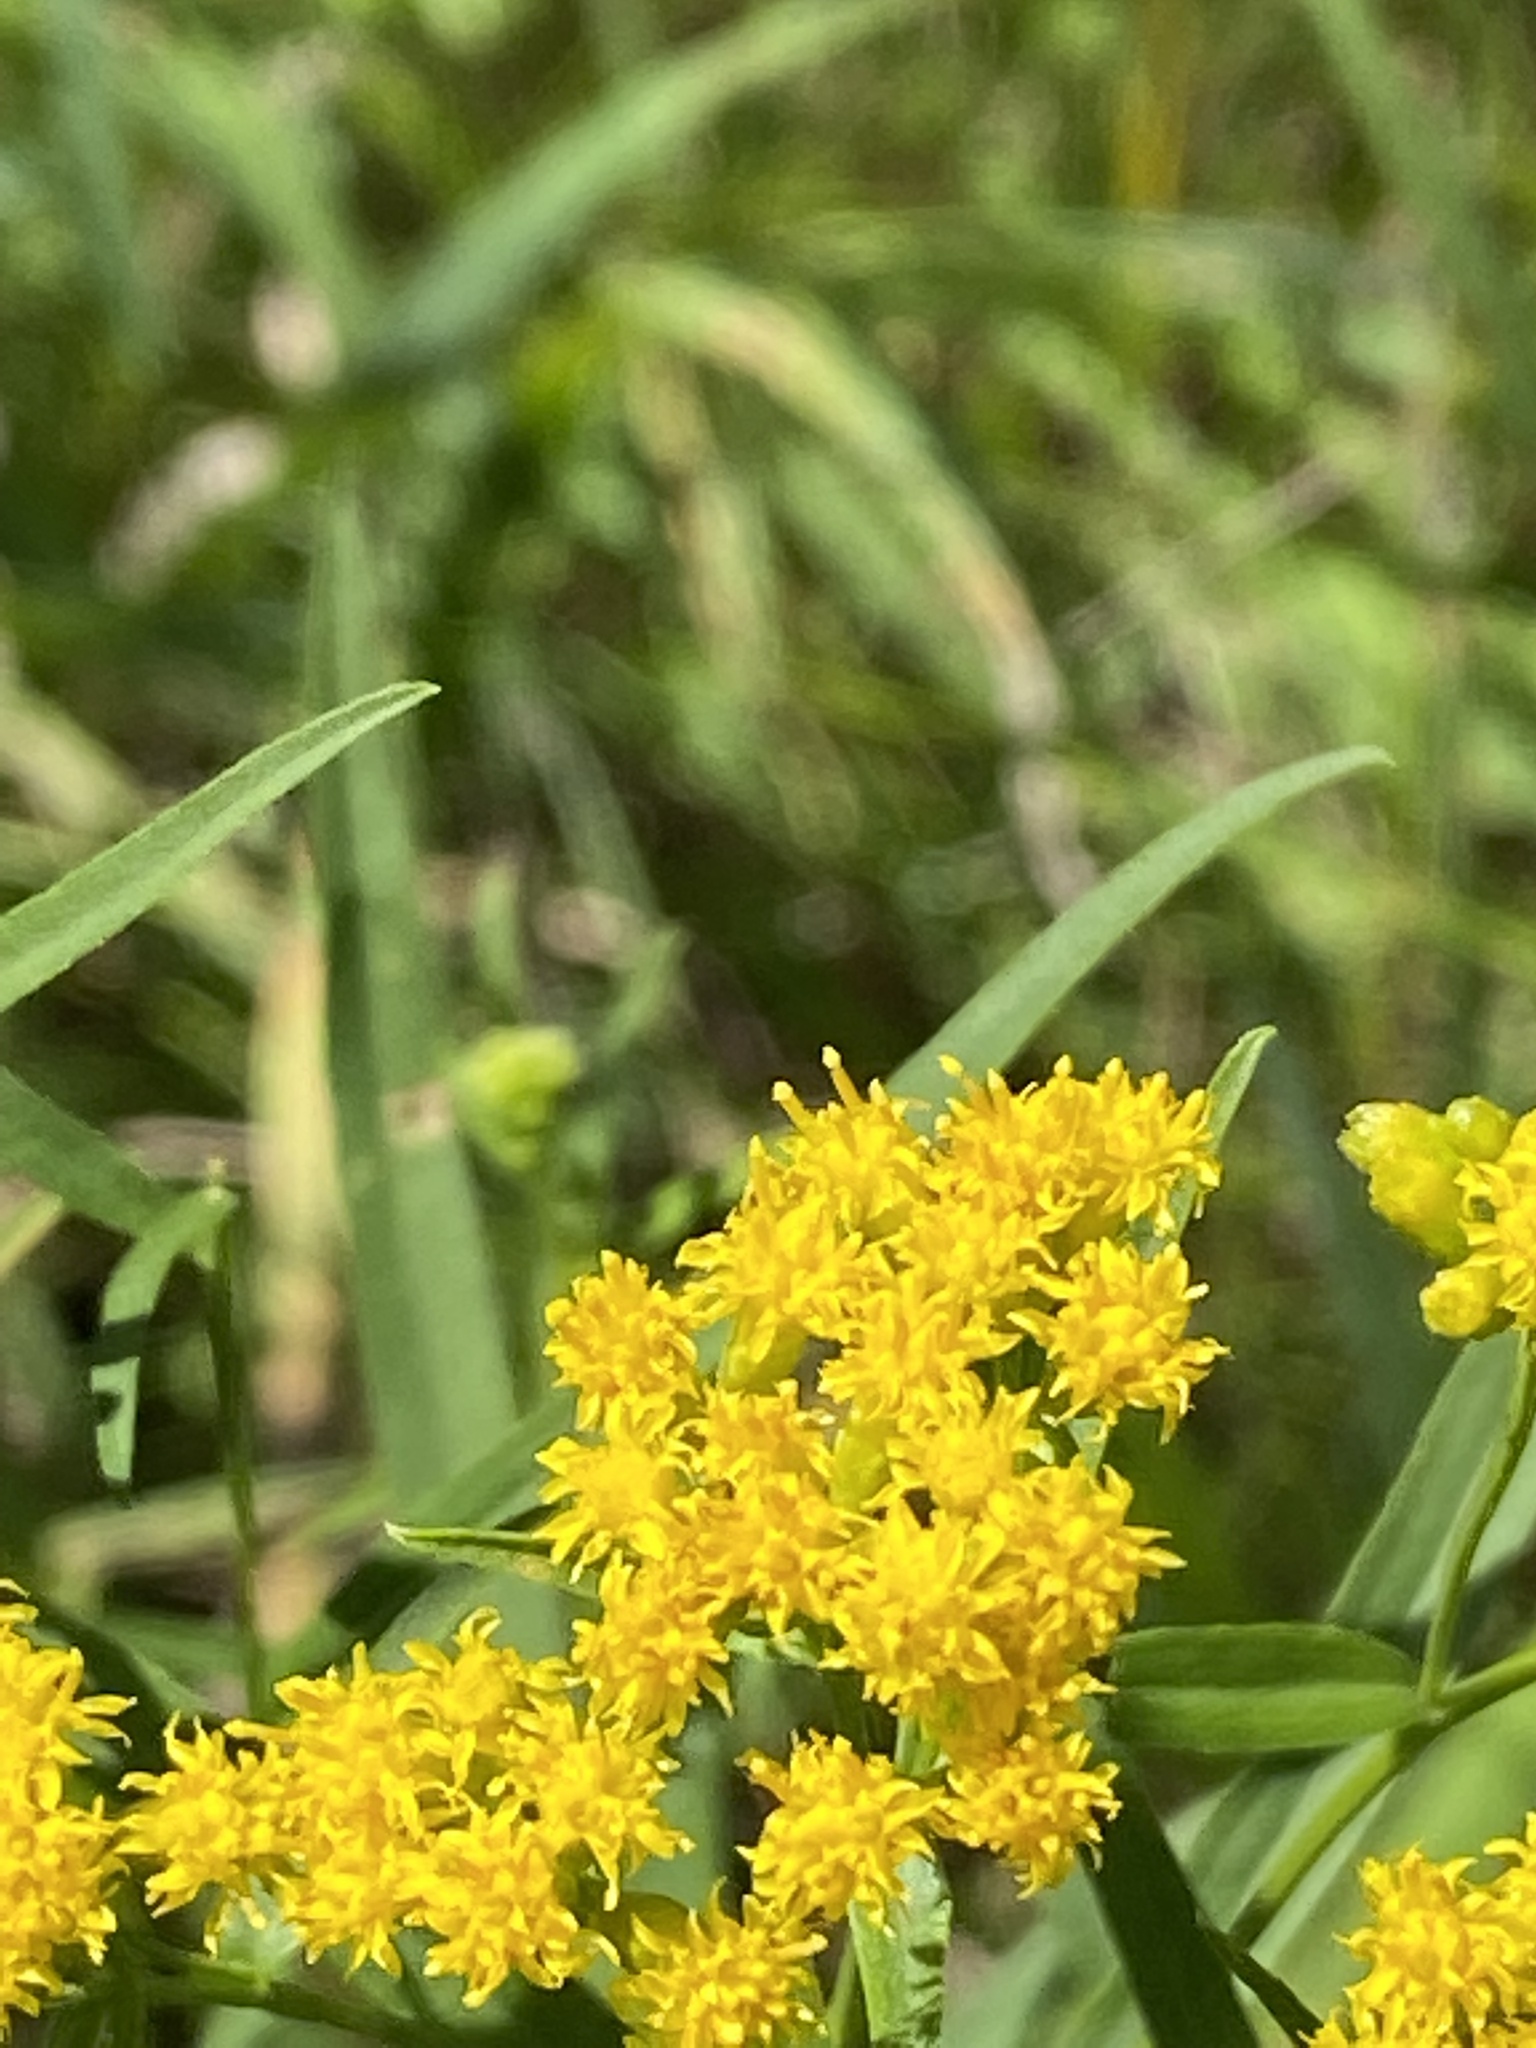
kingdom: Plantae
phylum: Tracheophyta
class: Magnoliopsida
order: Asterales
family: Asteraceae
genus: Euthamia
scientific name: Euthamia graminifolia
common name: Common goldentop
